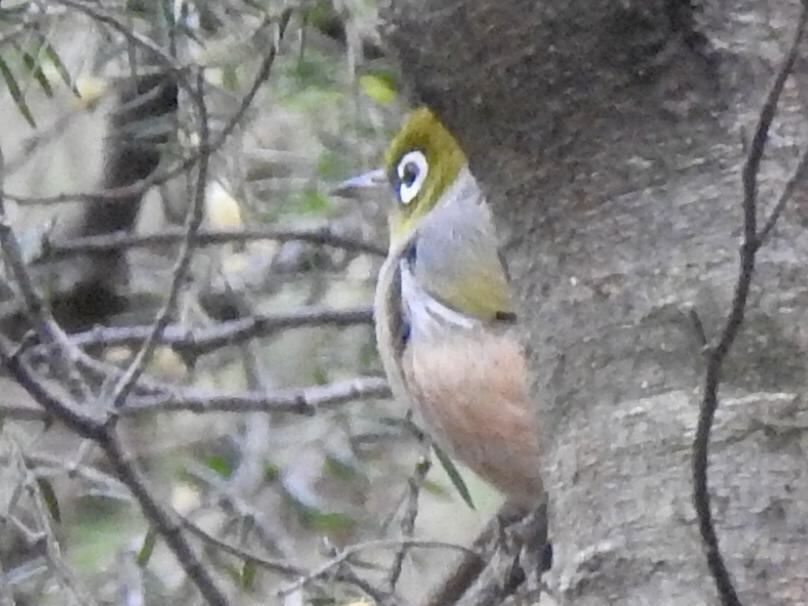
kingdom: Animalia
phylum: Chordata
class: Aves
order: Passeriformes
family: Zosteropidae
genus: Zosterops
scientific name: Zosterops lateralis
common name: Silvereye
